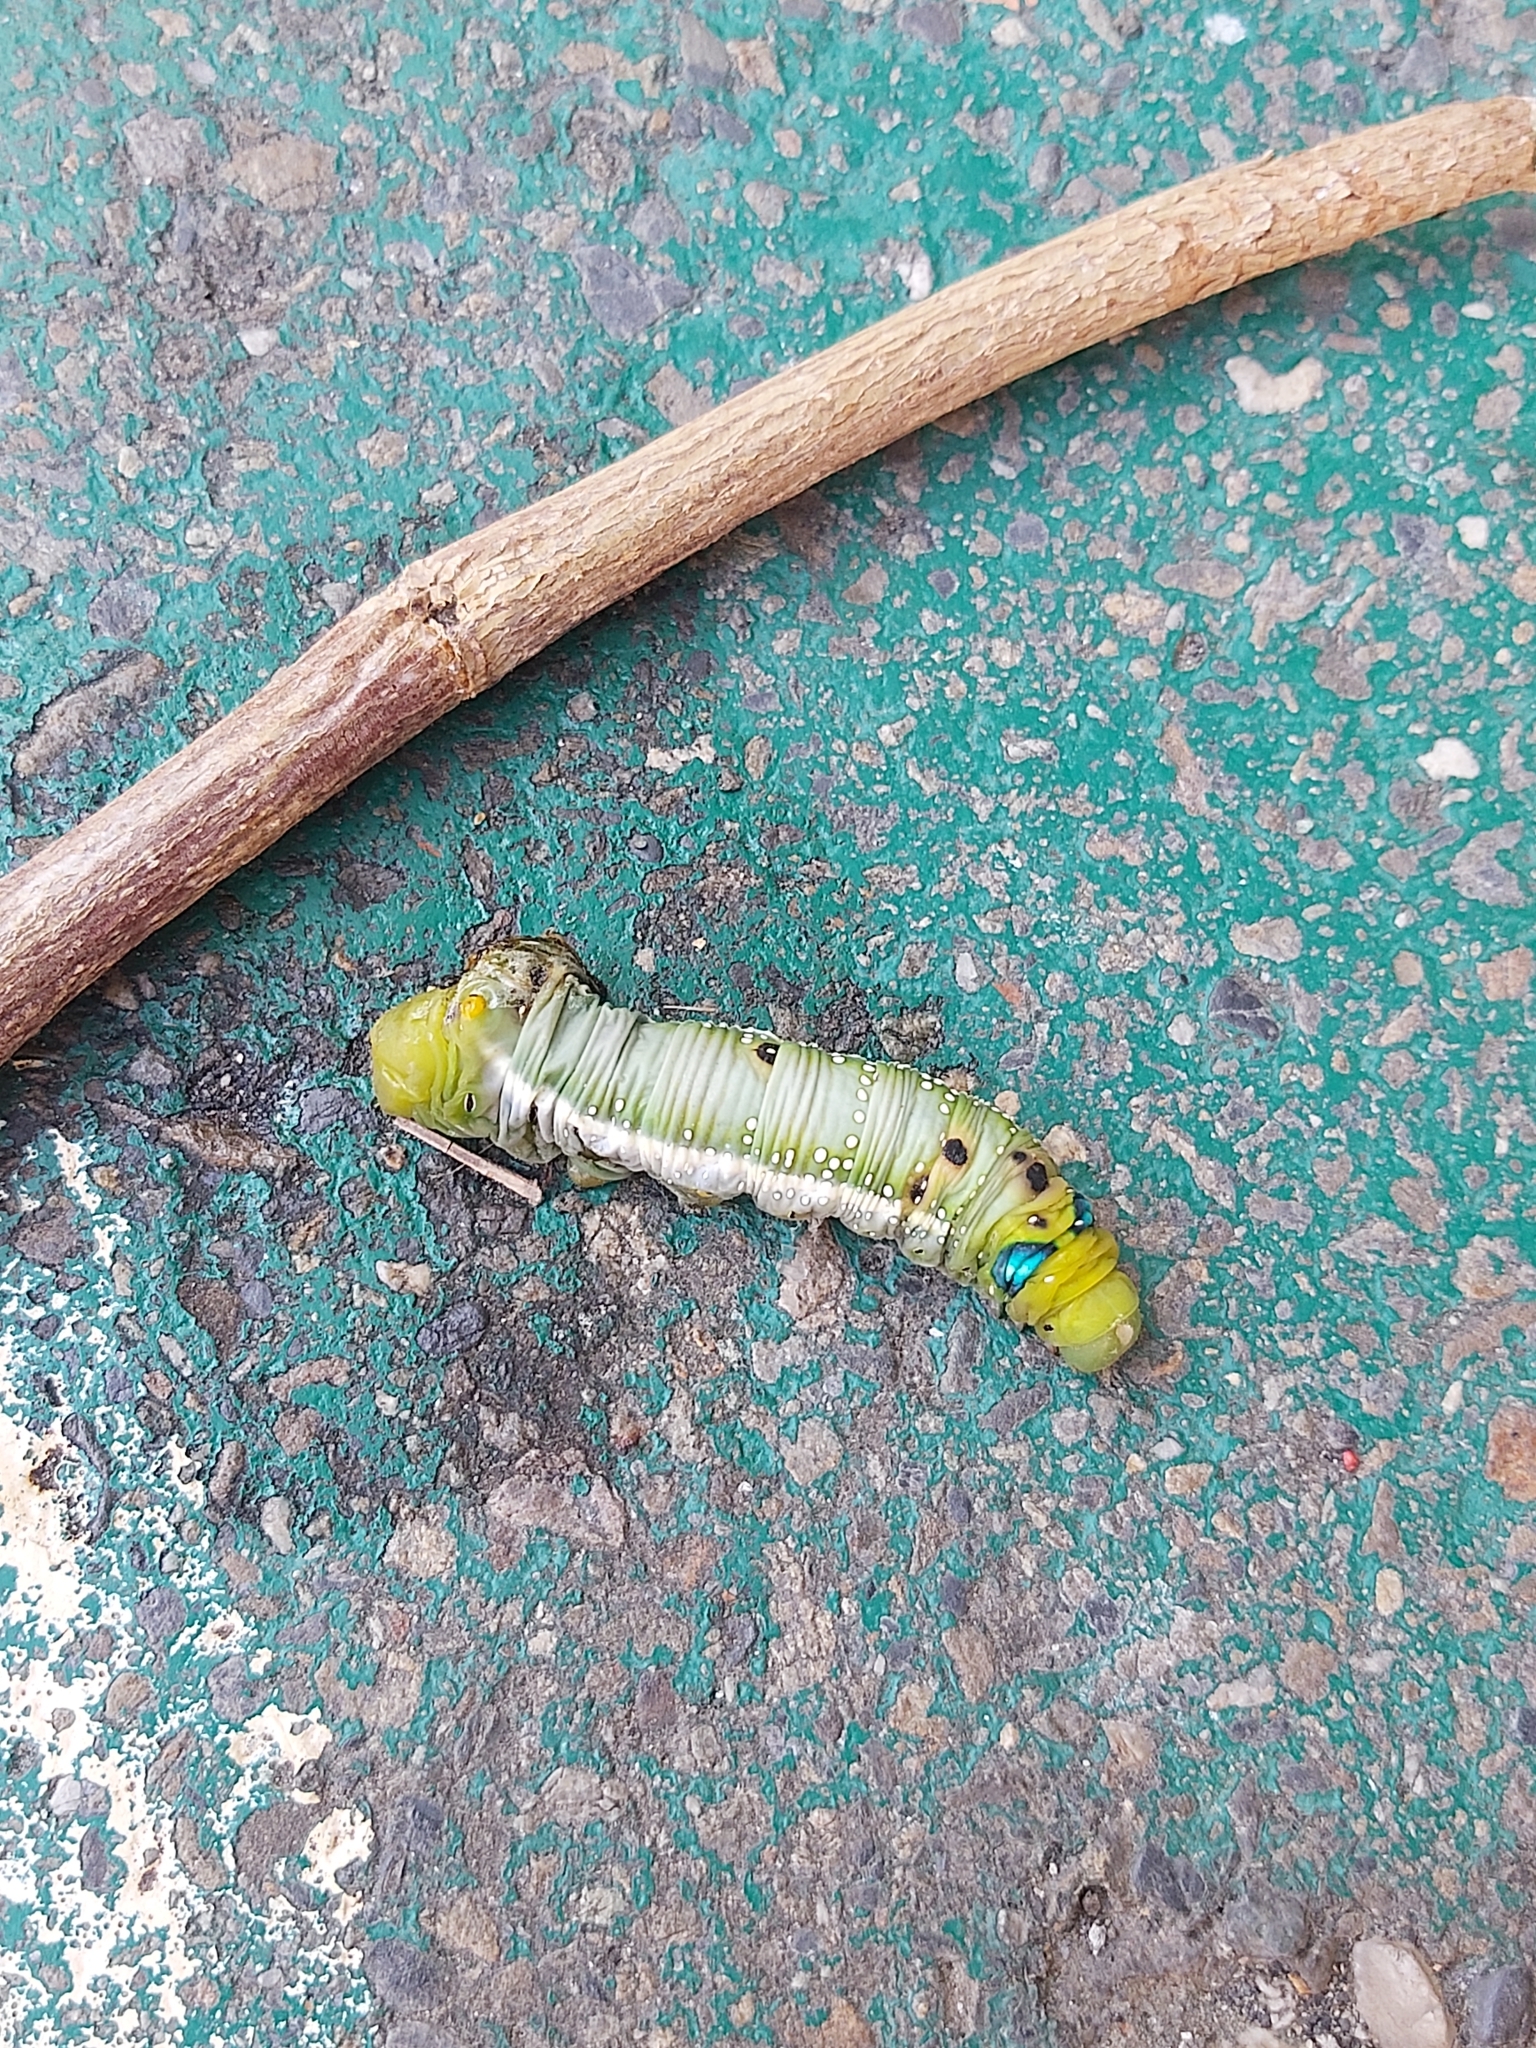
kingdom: Animalia
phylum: Arthropoda
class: Insecta
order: Lepidoptera
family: Sphingidae
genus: Daphnis
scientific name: Daphnis nerii
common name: Oleander hawk-moth
